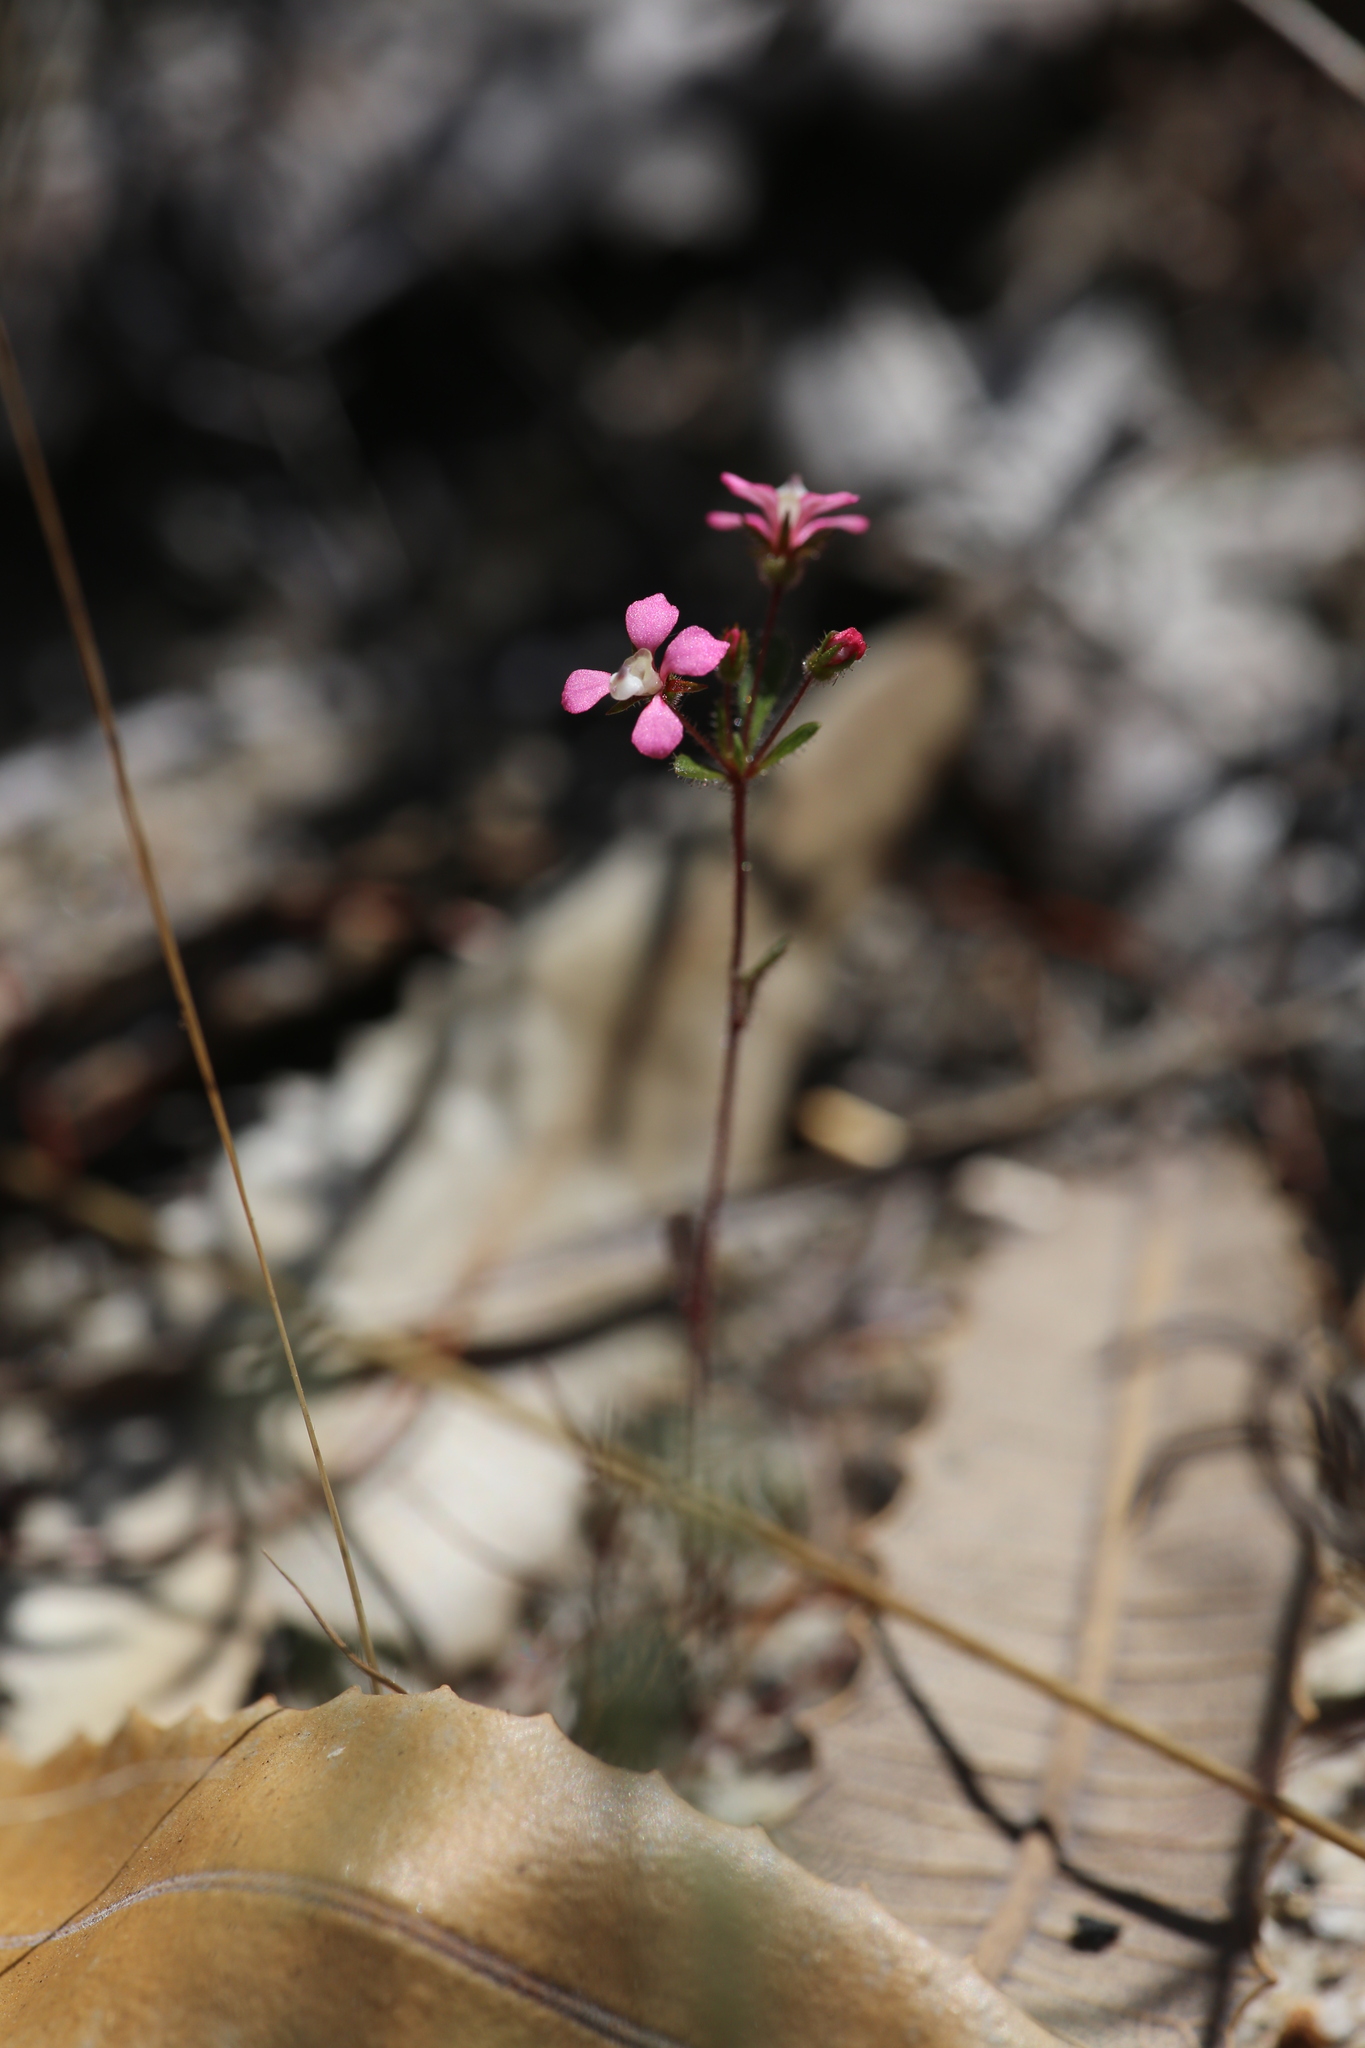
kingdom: Plantae
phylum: Tracheophyta
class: Magnoliopsida
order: Asterales
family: Stylidiaceae
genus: Levenhookia
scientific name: Levenhookia stipitata
